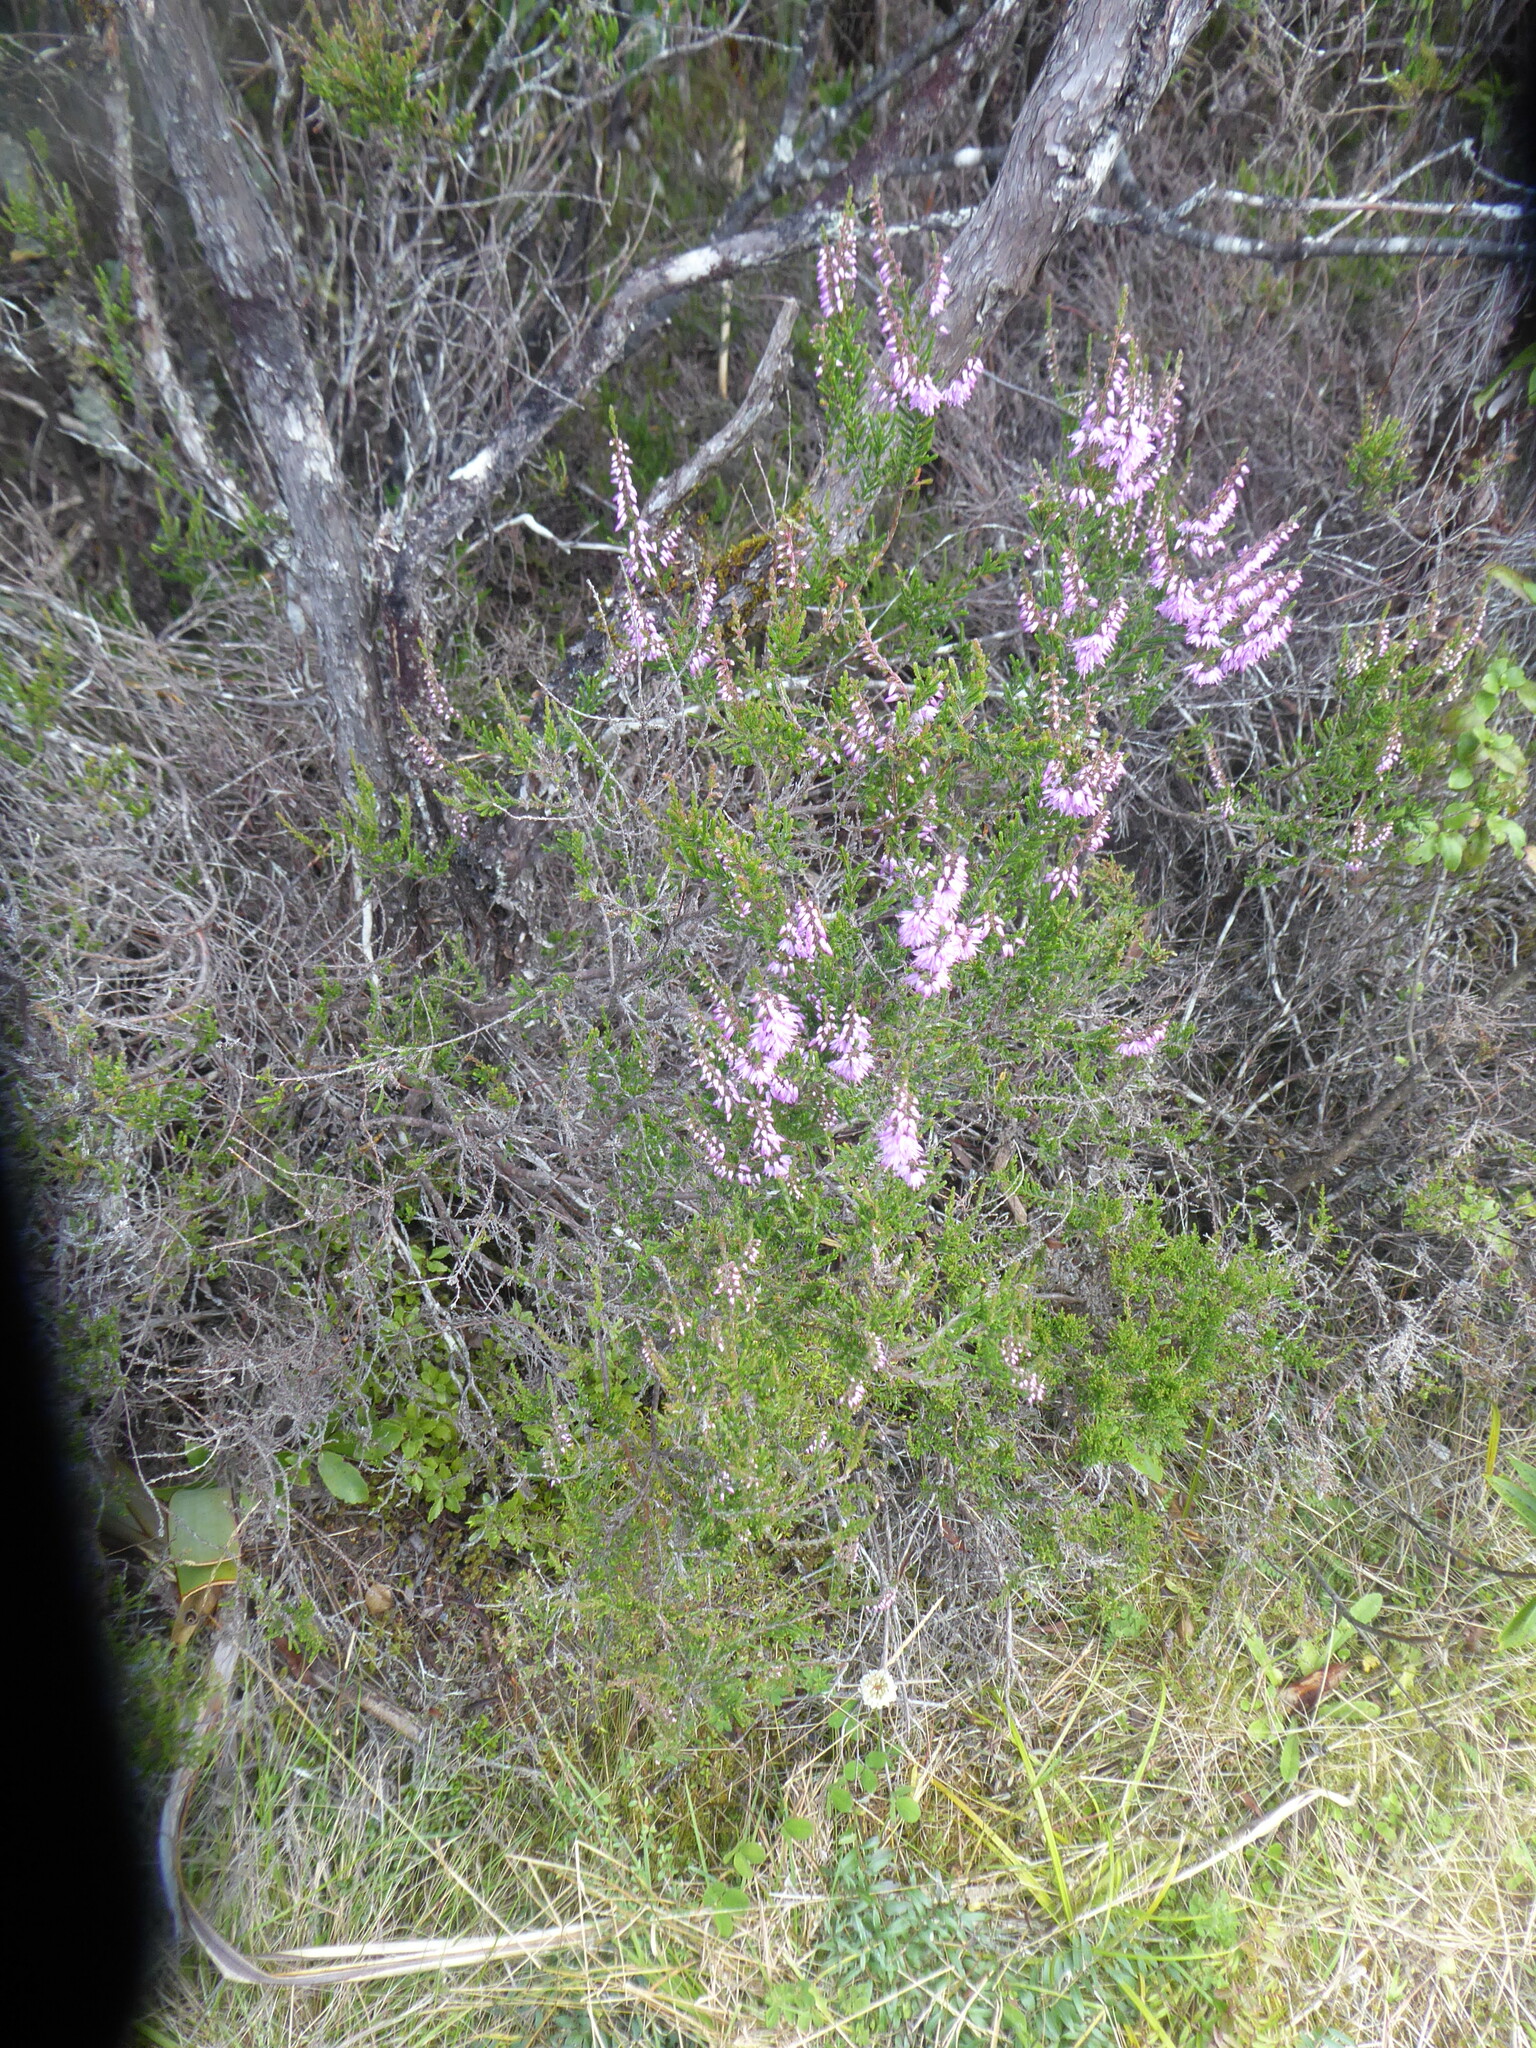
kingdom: Plantae
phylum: Tracheophyta
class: Magnoliopsida
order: Ericales
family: Ericaceae
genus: Calluna
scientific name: Calluna vulgaris
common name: Heather
